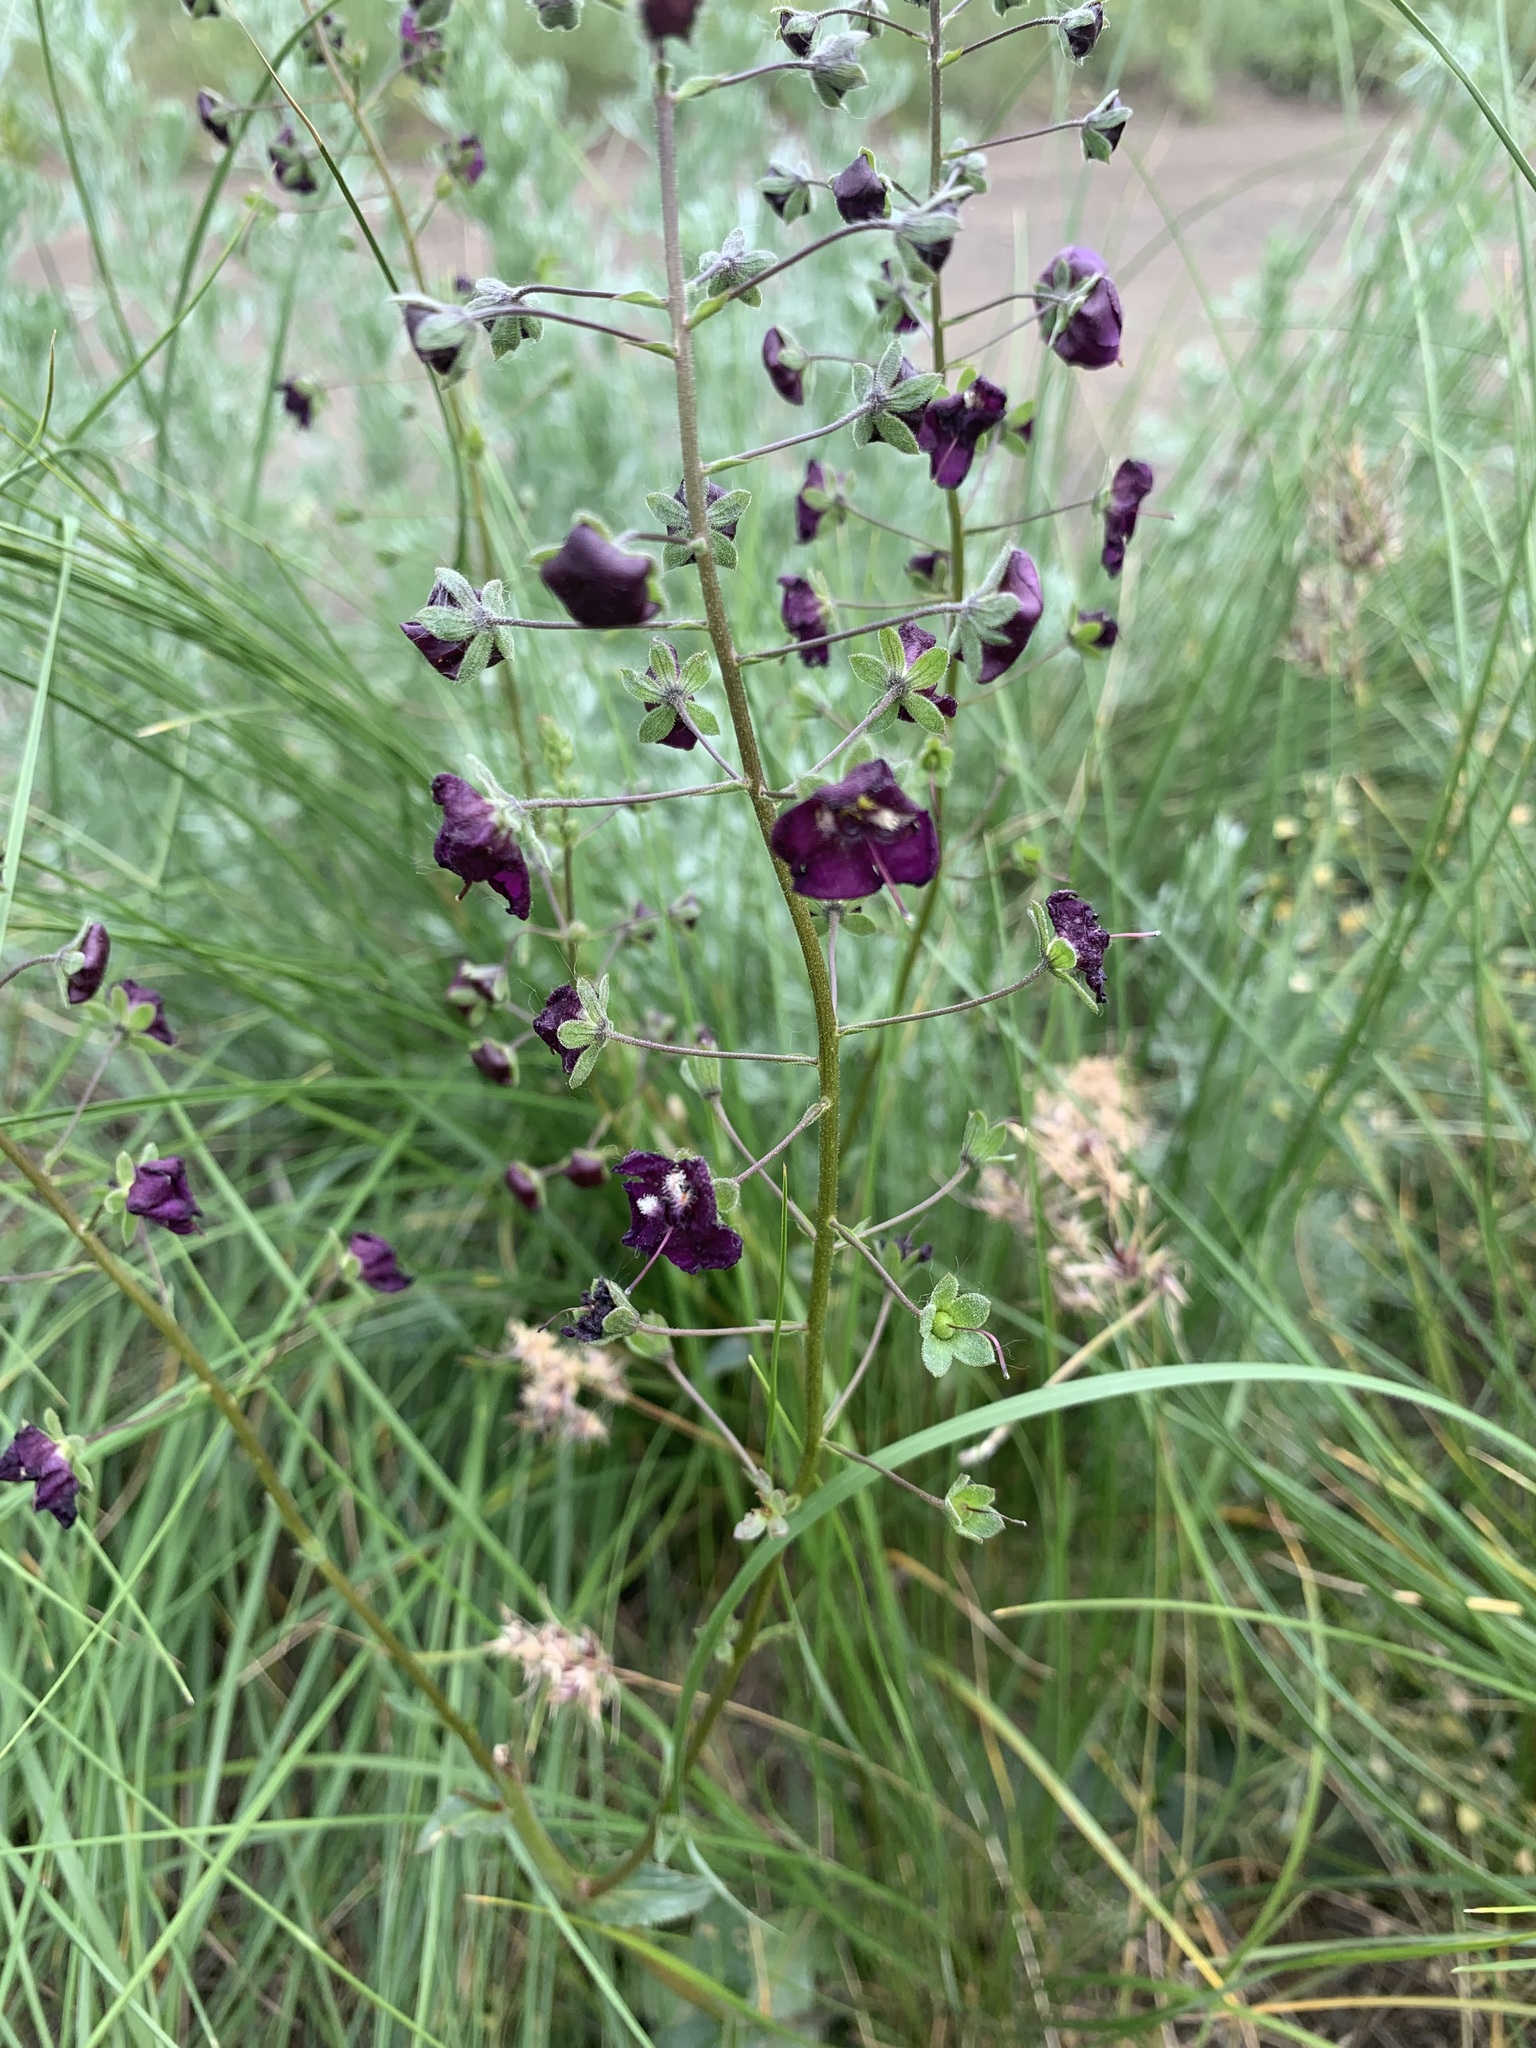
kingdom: Plantae
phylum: Tracheophyta
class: Magnoliopsida
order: Lamiales
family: Scrophulariaceae
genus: Verbascum
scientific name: Verbascum phoeniceum
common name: Purple mullein
